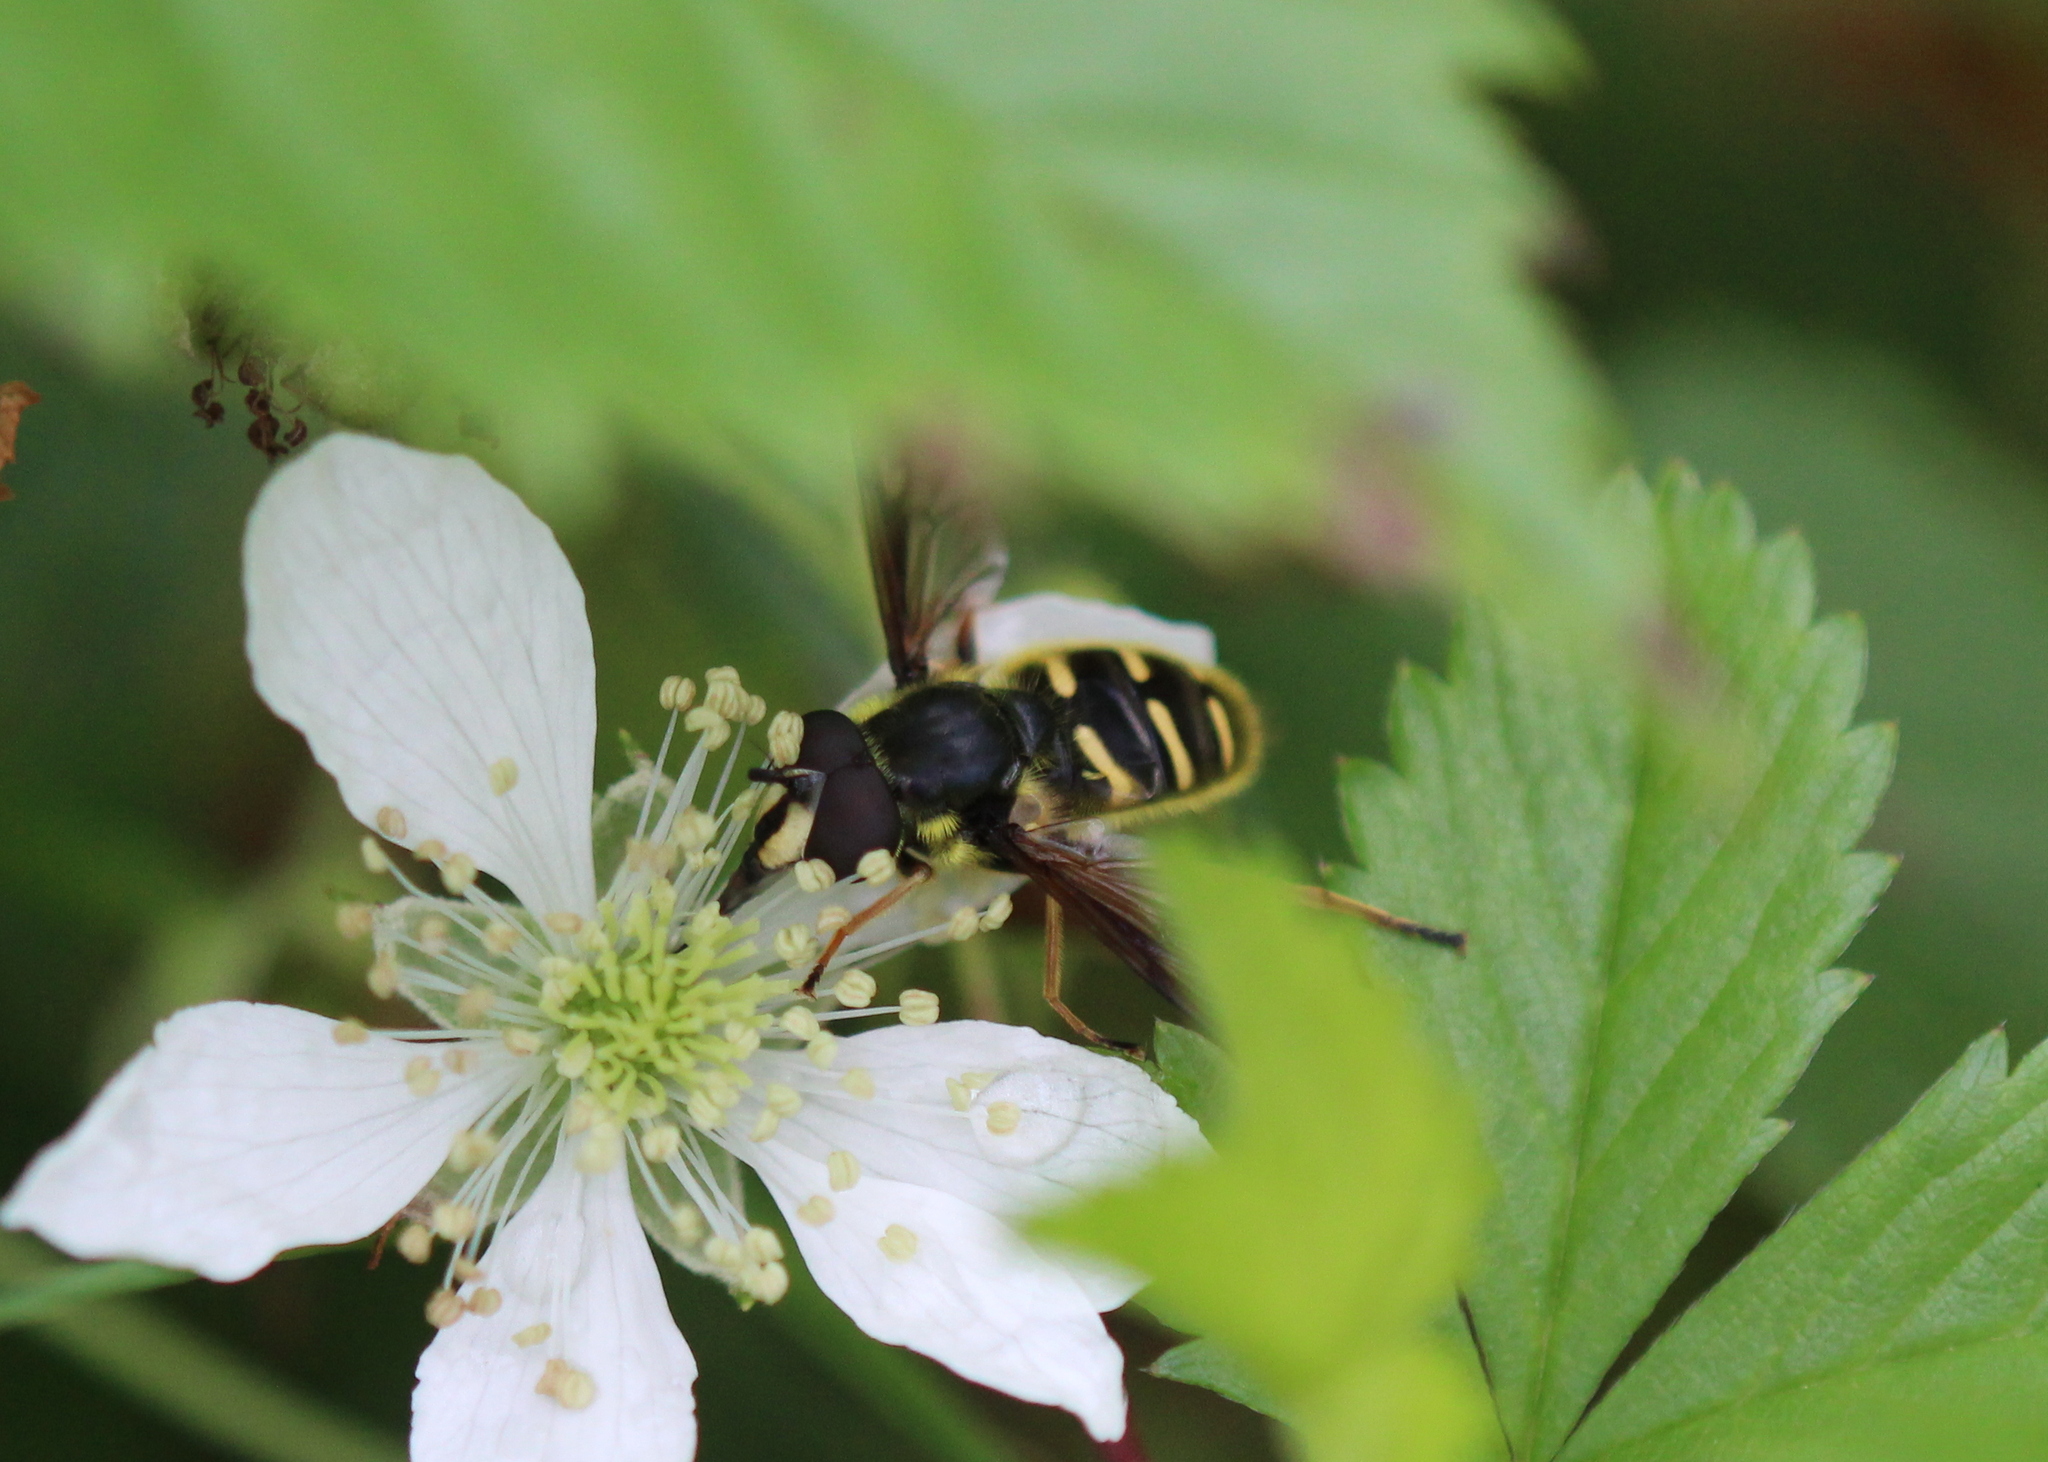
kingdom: Animalia
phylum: Arthropoda
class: Insecta
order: Diptera
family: Syrphidae
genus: Sericomyia
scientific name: Sericomyia chrysotoxoides
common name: Oblique-banded pond fly
